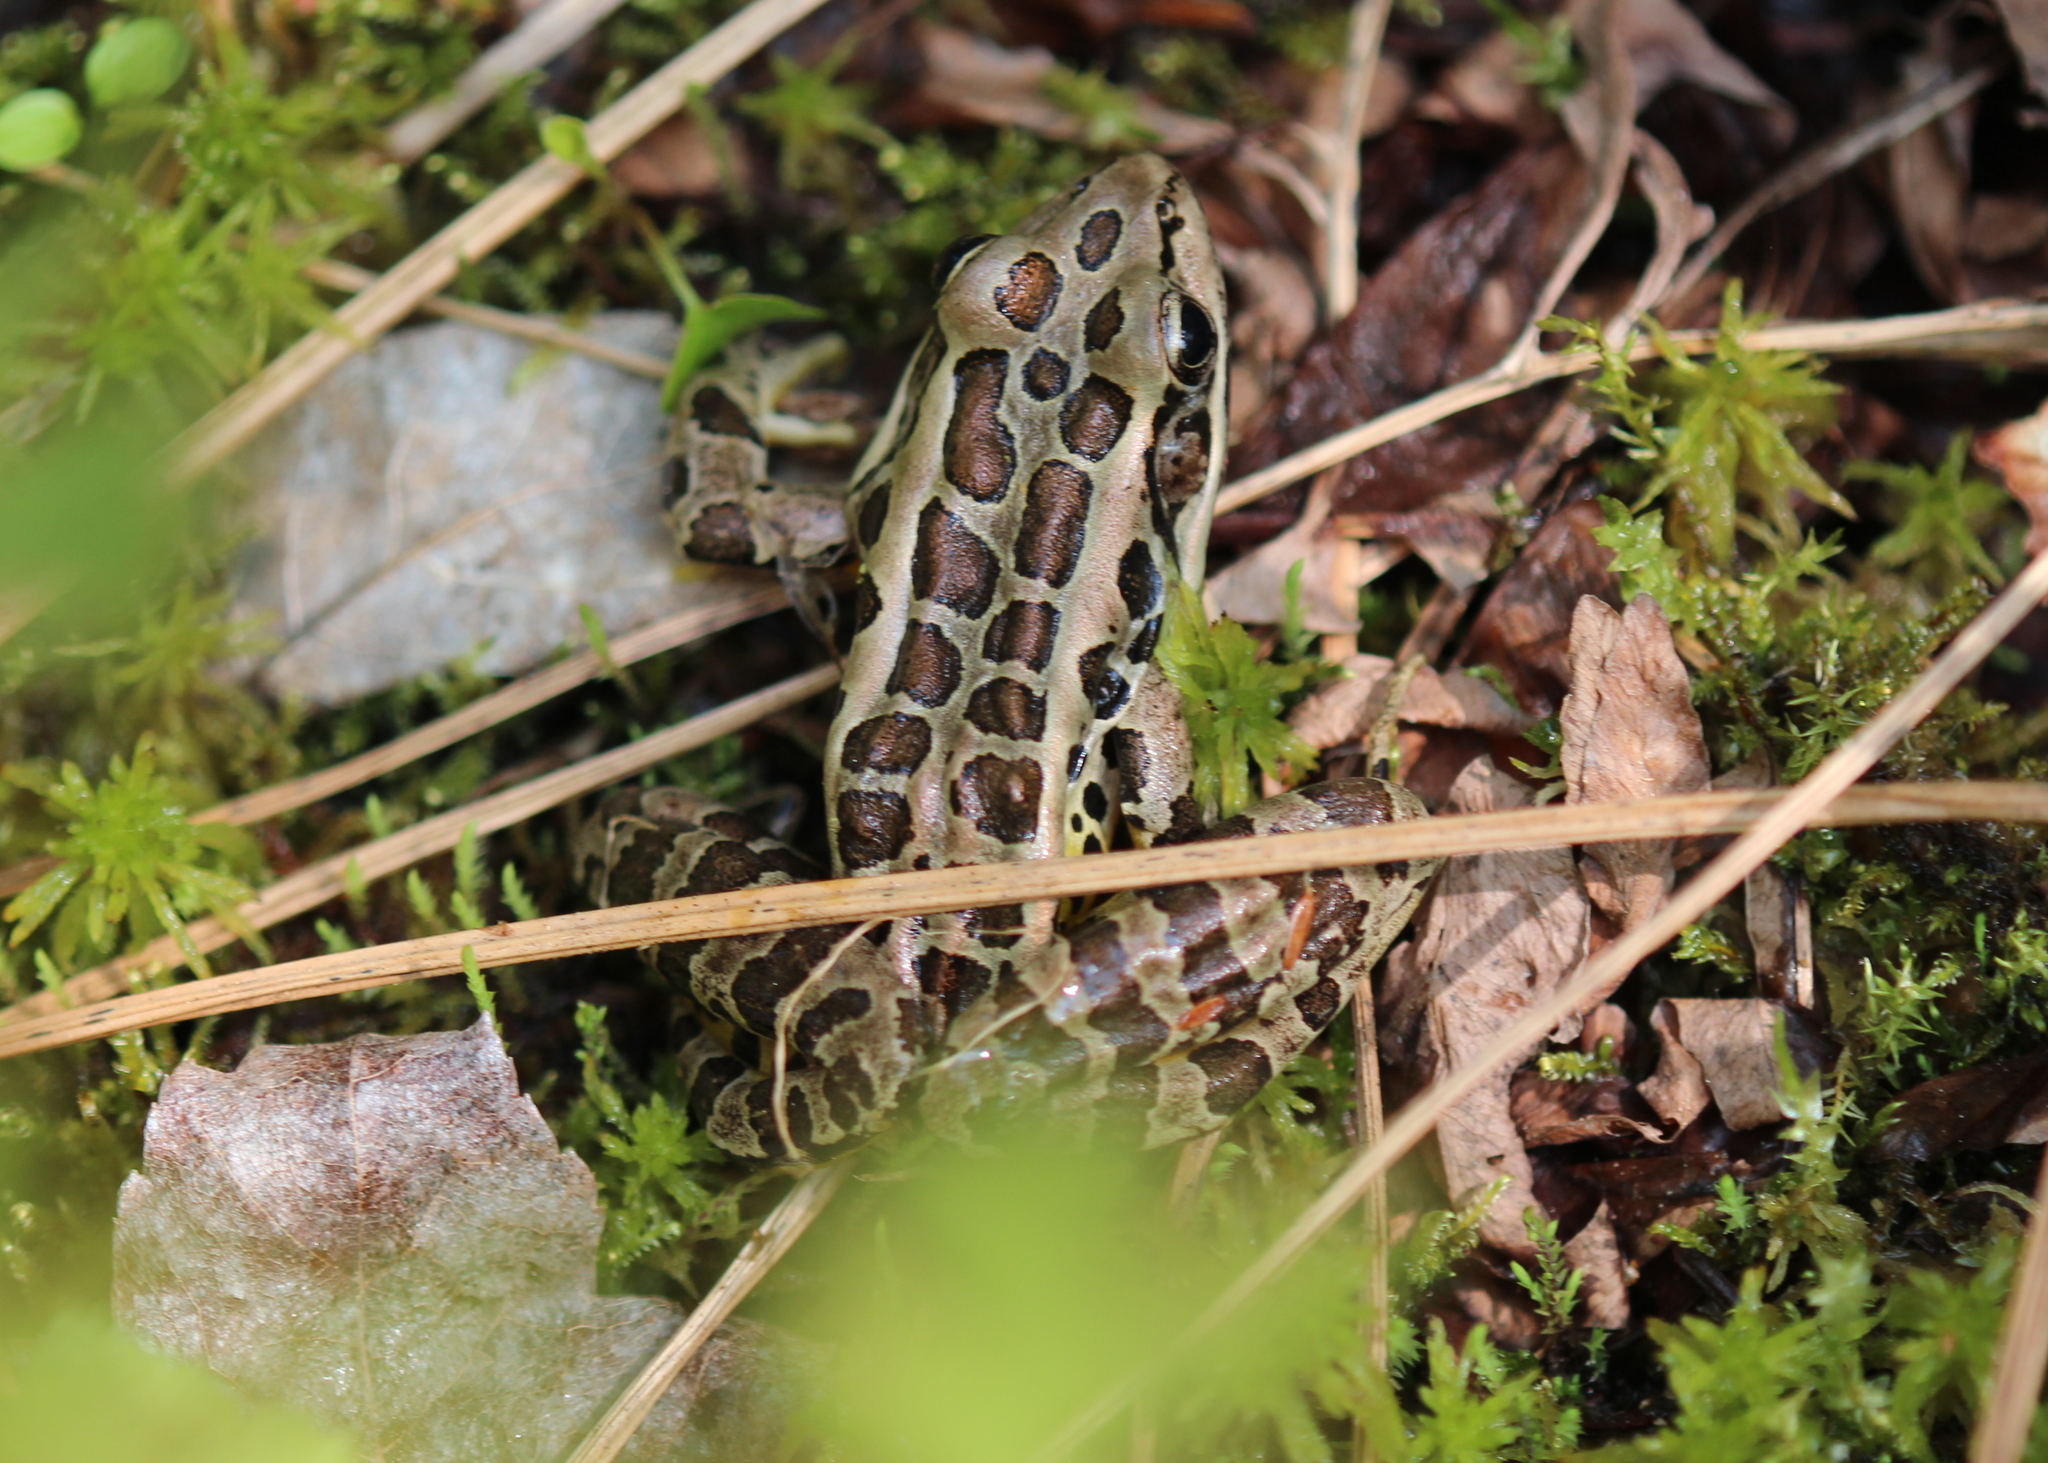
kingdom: Animalia
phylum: Chordata
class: Amphibia
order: Anura
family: Ranidae
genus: Lithobates
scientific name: Lithobates palustris
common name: Pickerel frog
